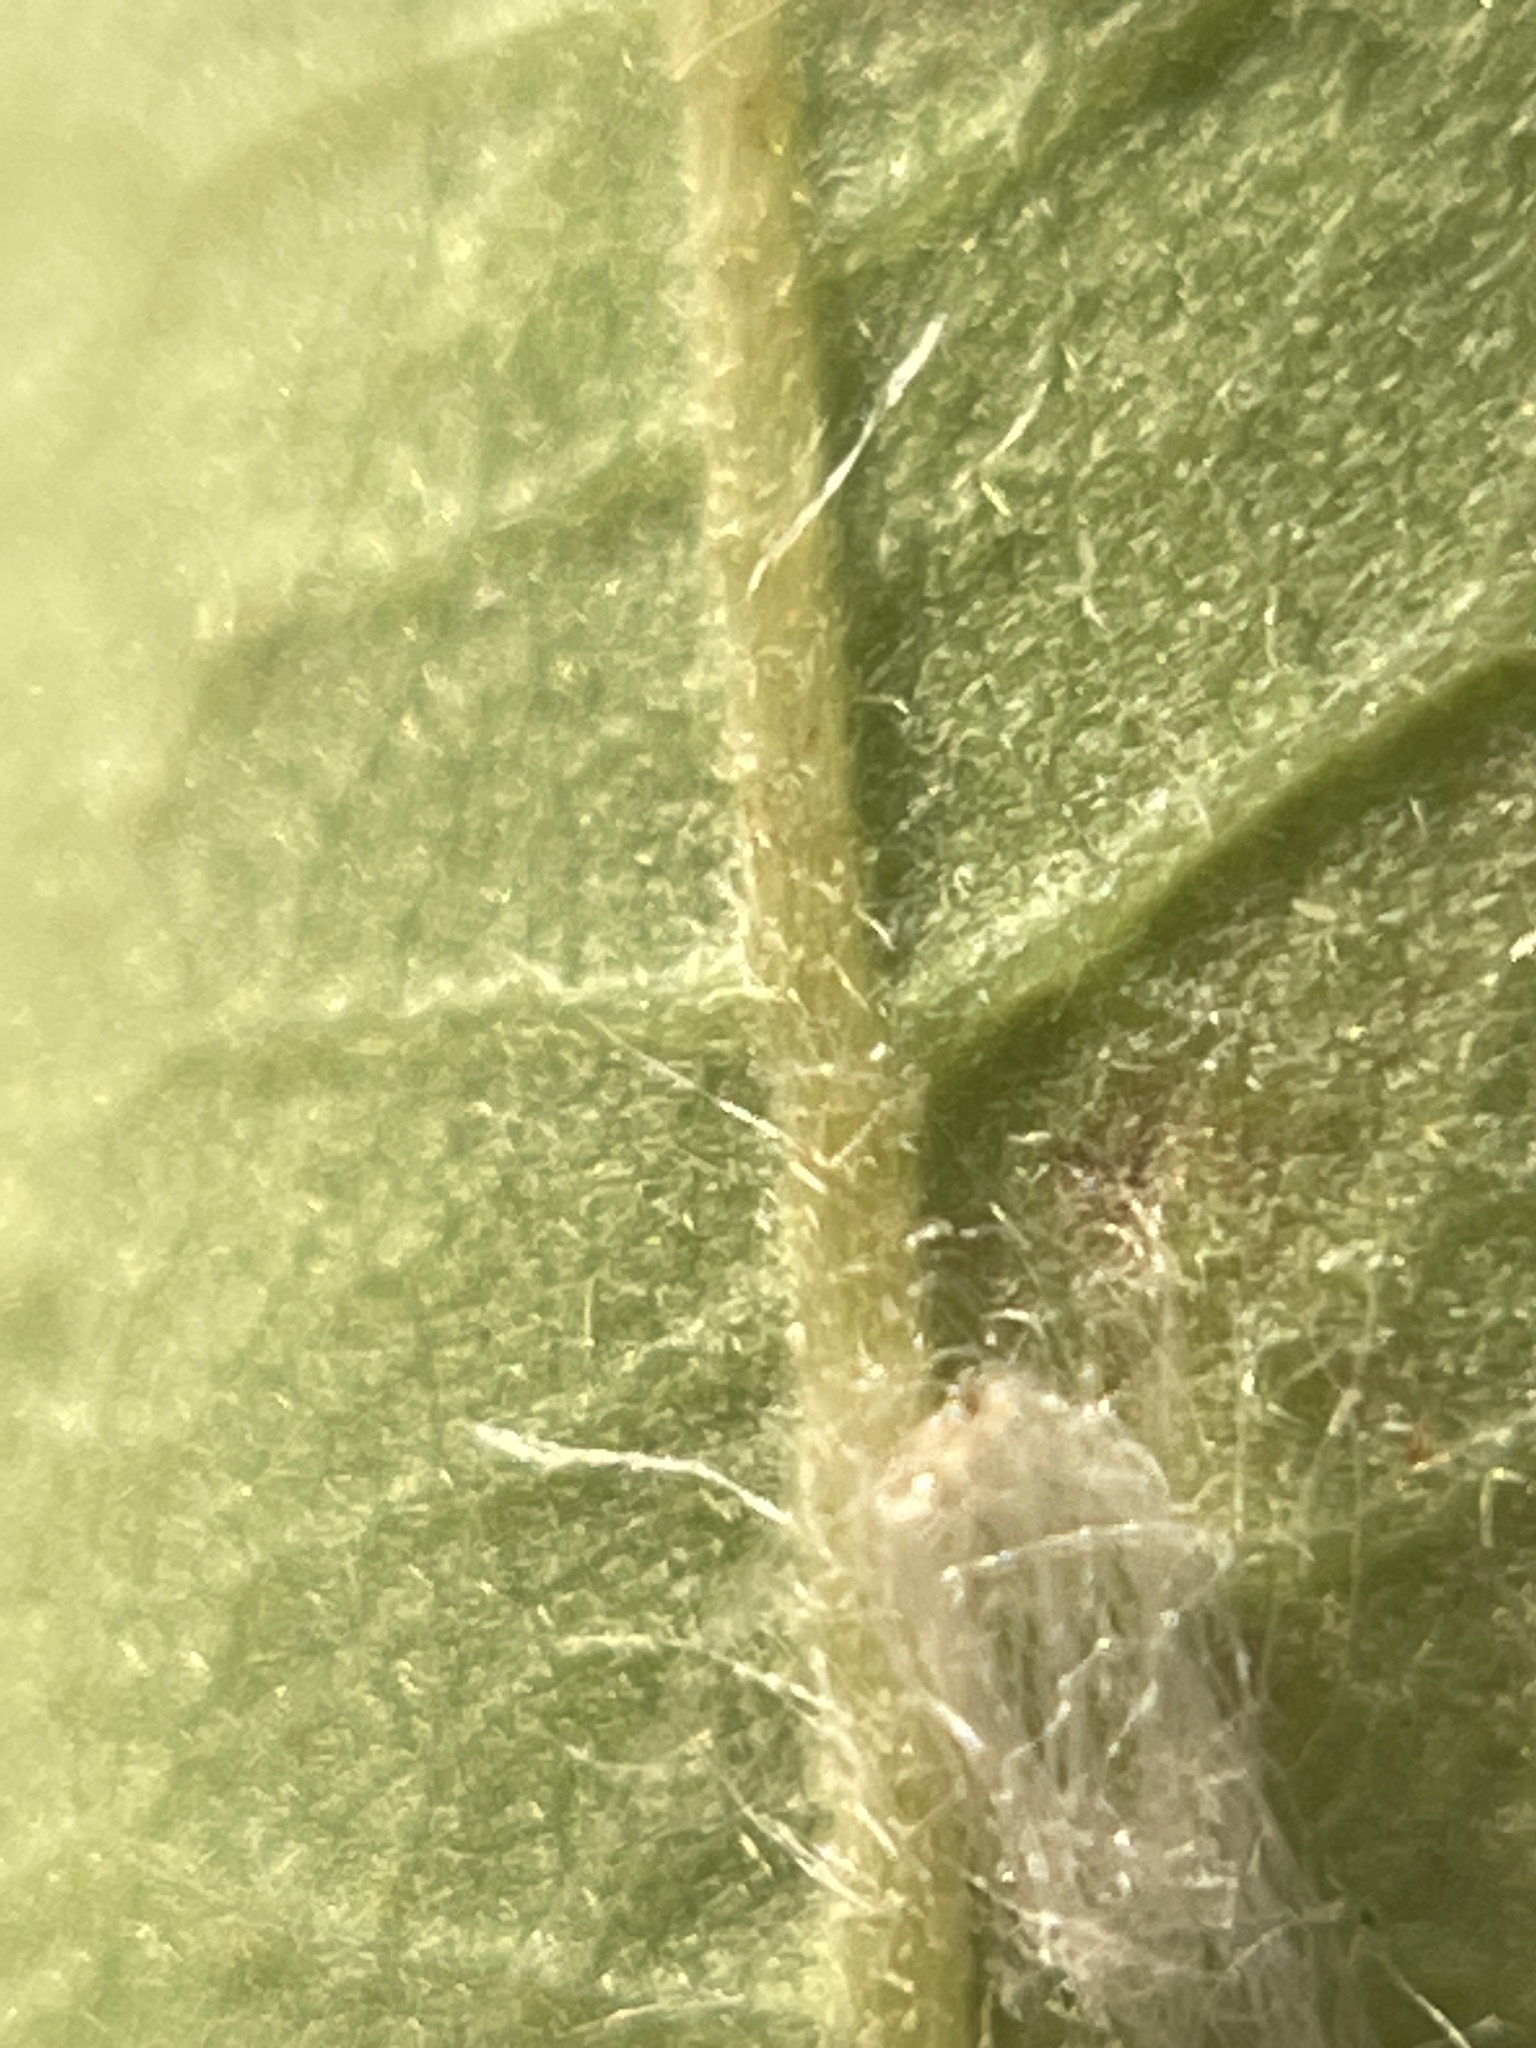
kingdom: Plantae
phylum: Tracheophyta
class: Magnoliopsida
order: Fagales
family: Fagaceae
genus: Quercus
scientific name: Quercus macrocarpa
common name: Bur oak
